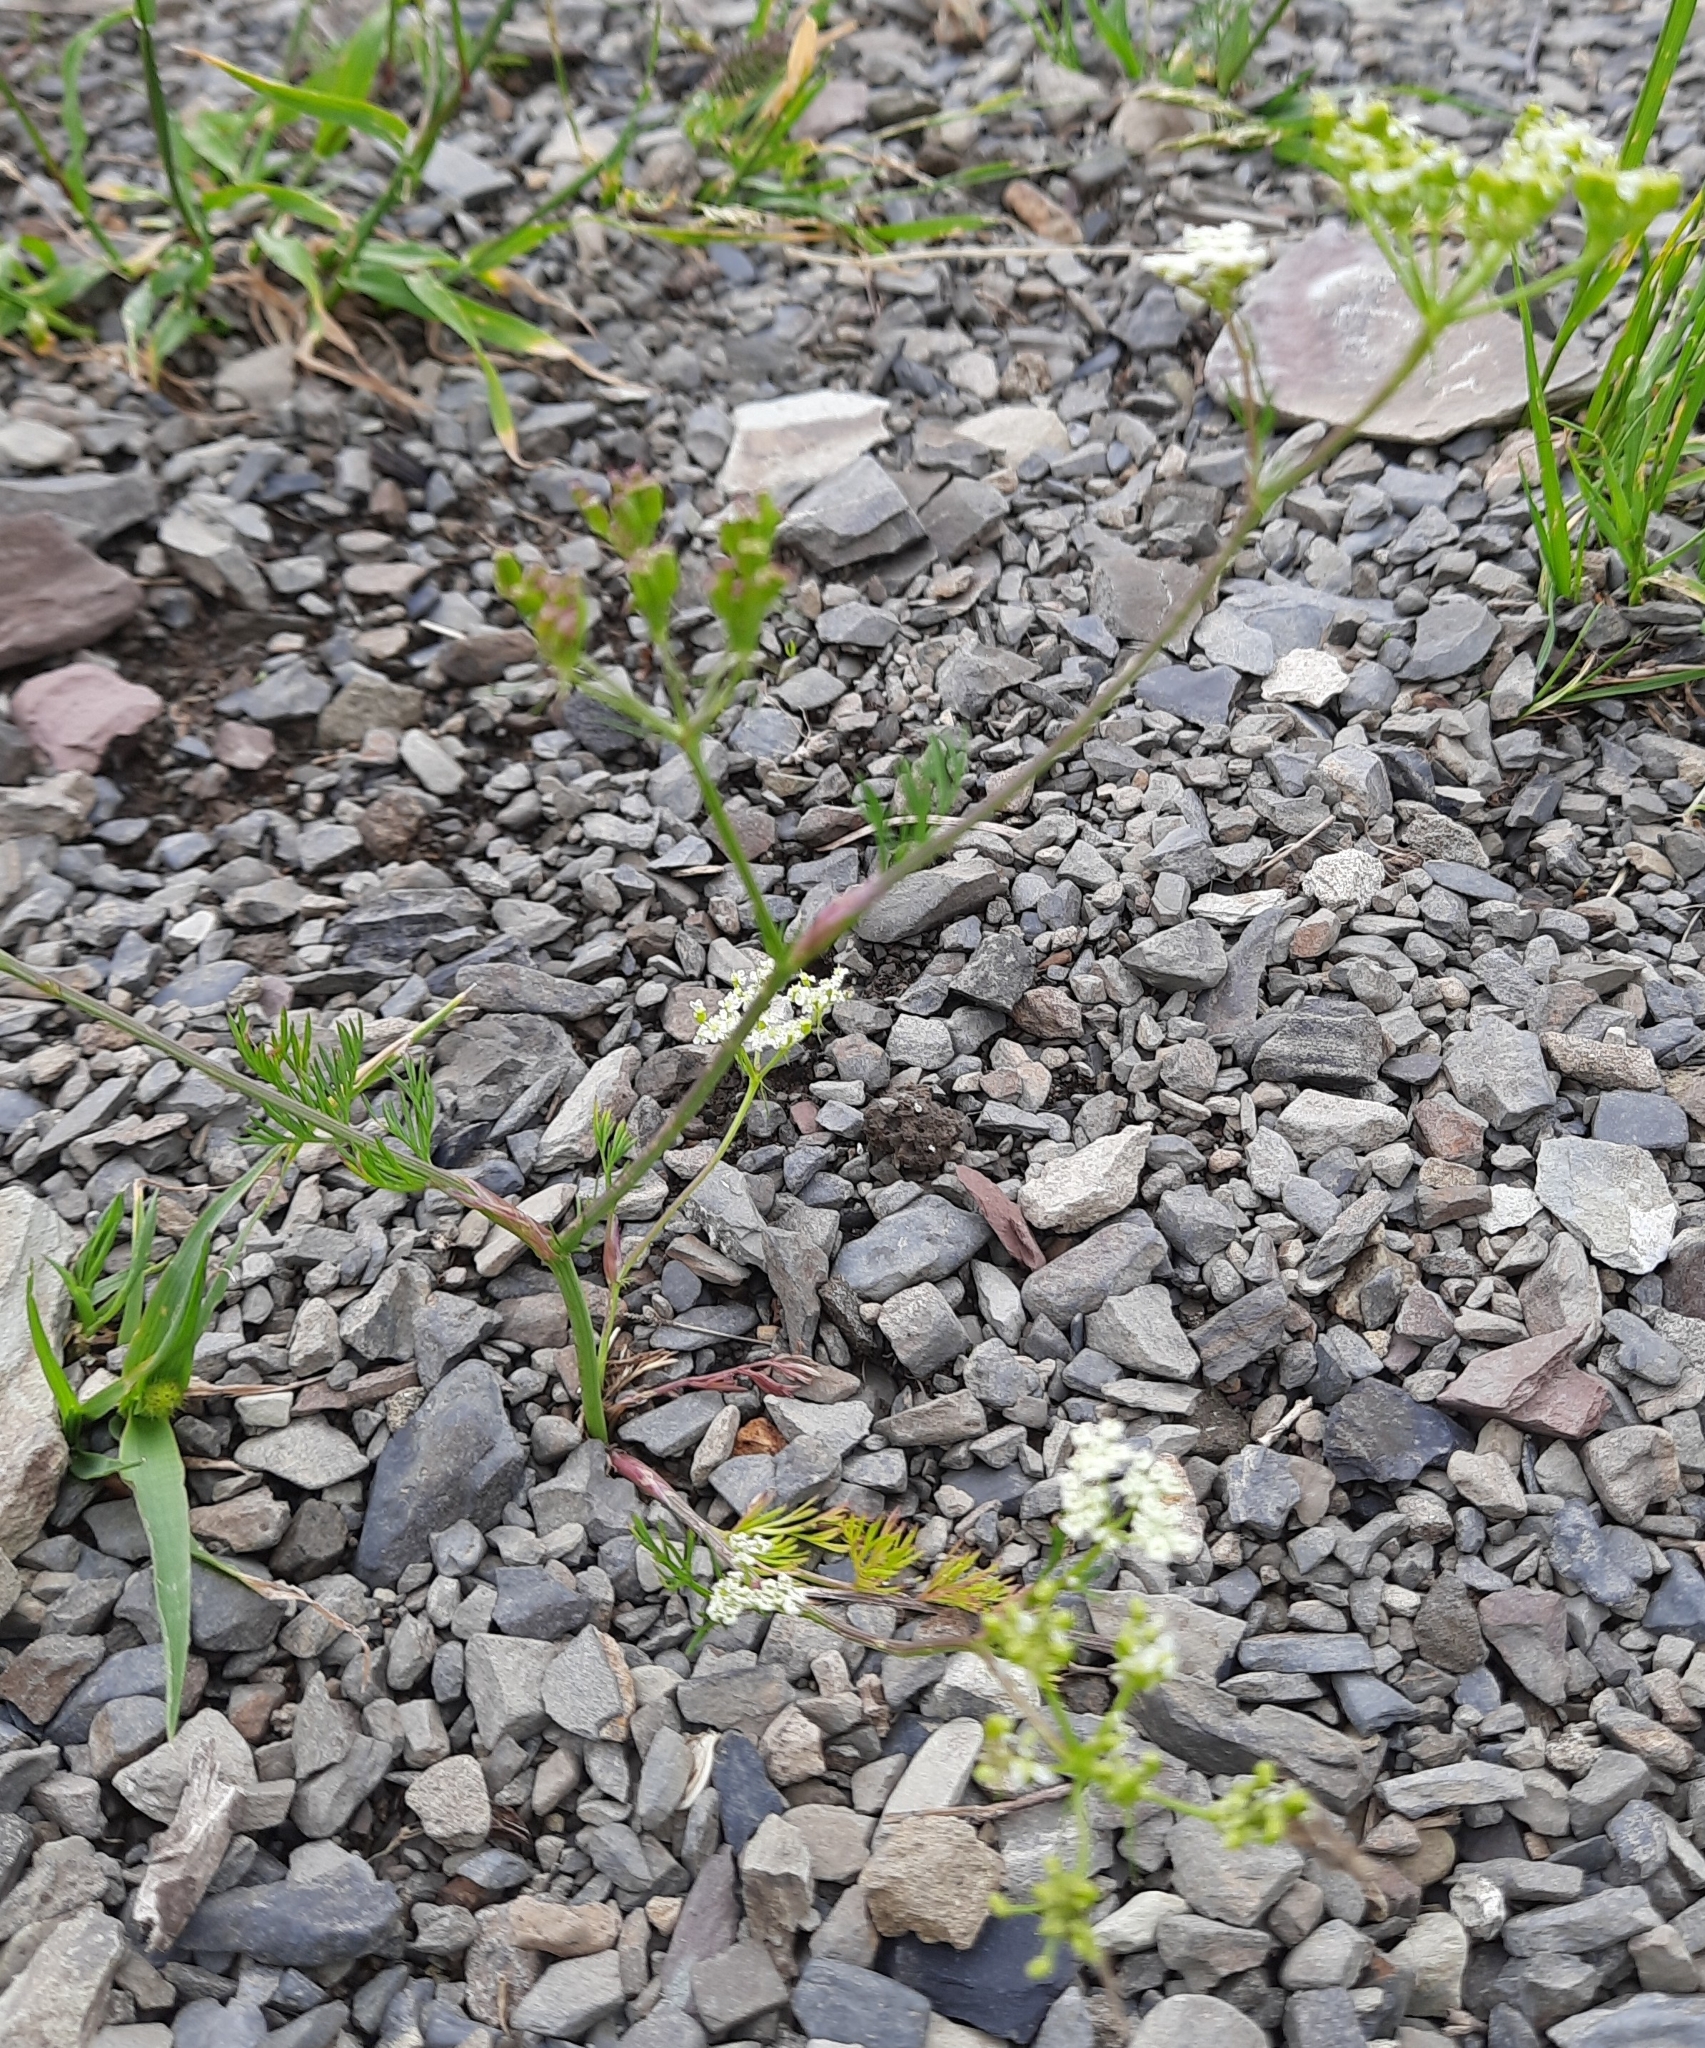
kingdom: Plantae
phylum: Tracheophyta
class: Magnoliopsida
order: Apiales
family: Apiaceae
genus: Carum
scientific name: Carum meifolium
